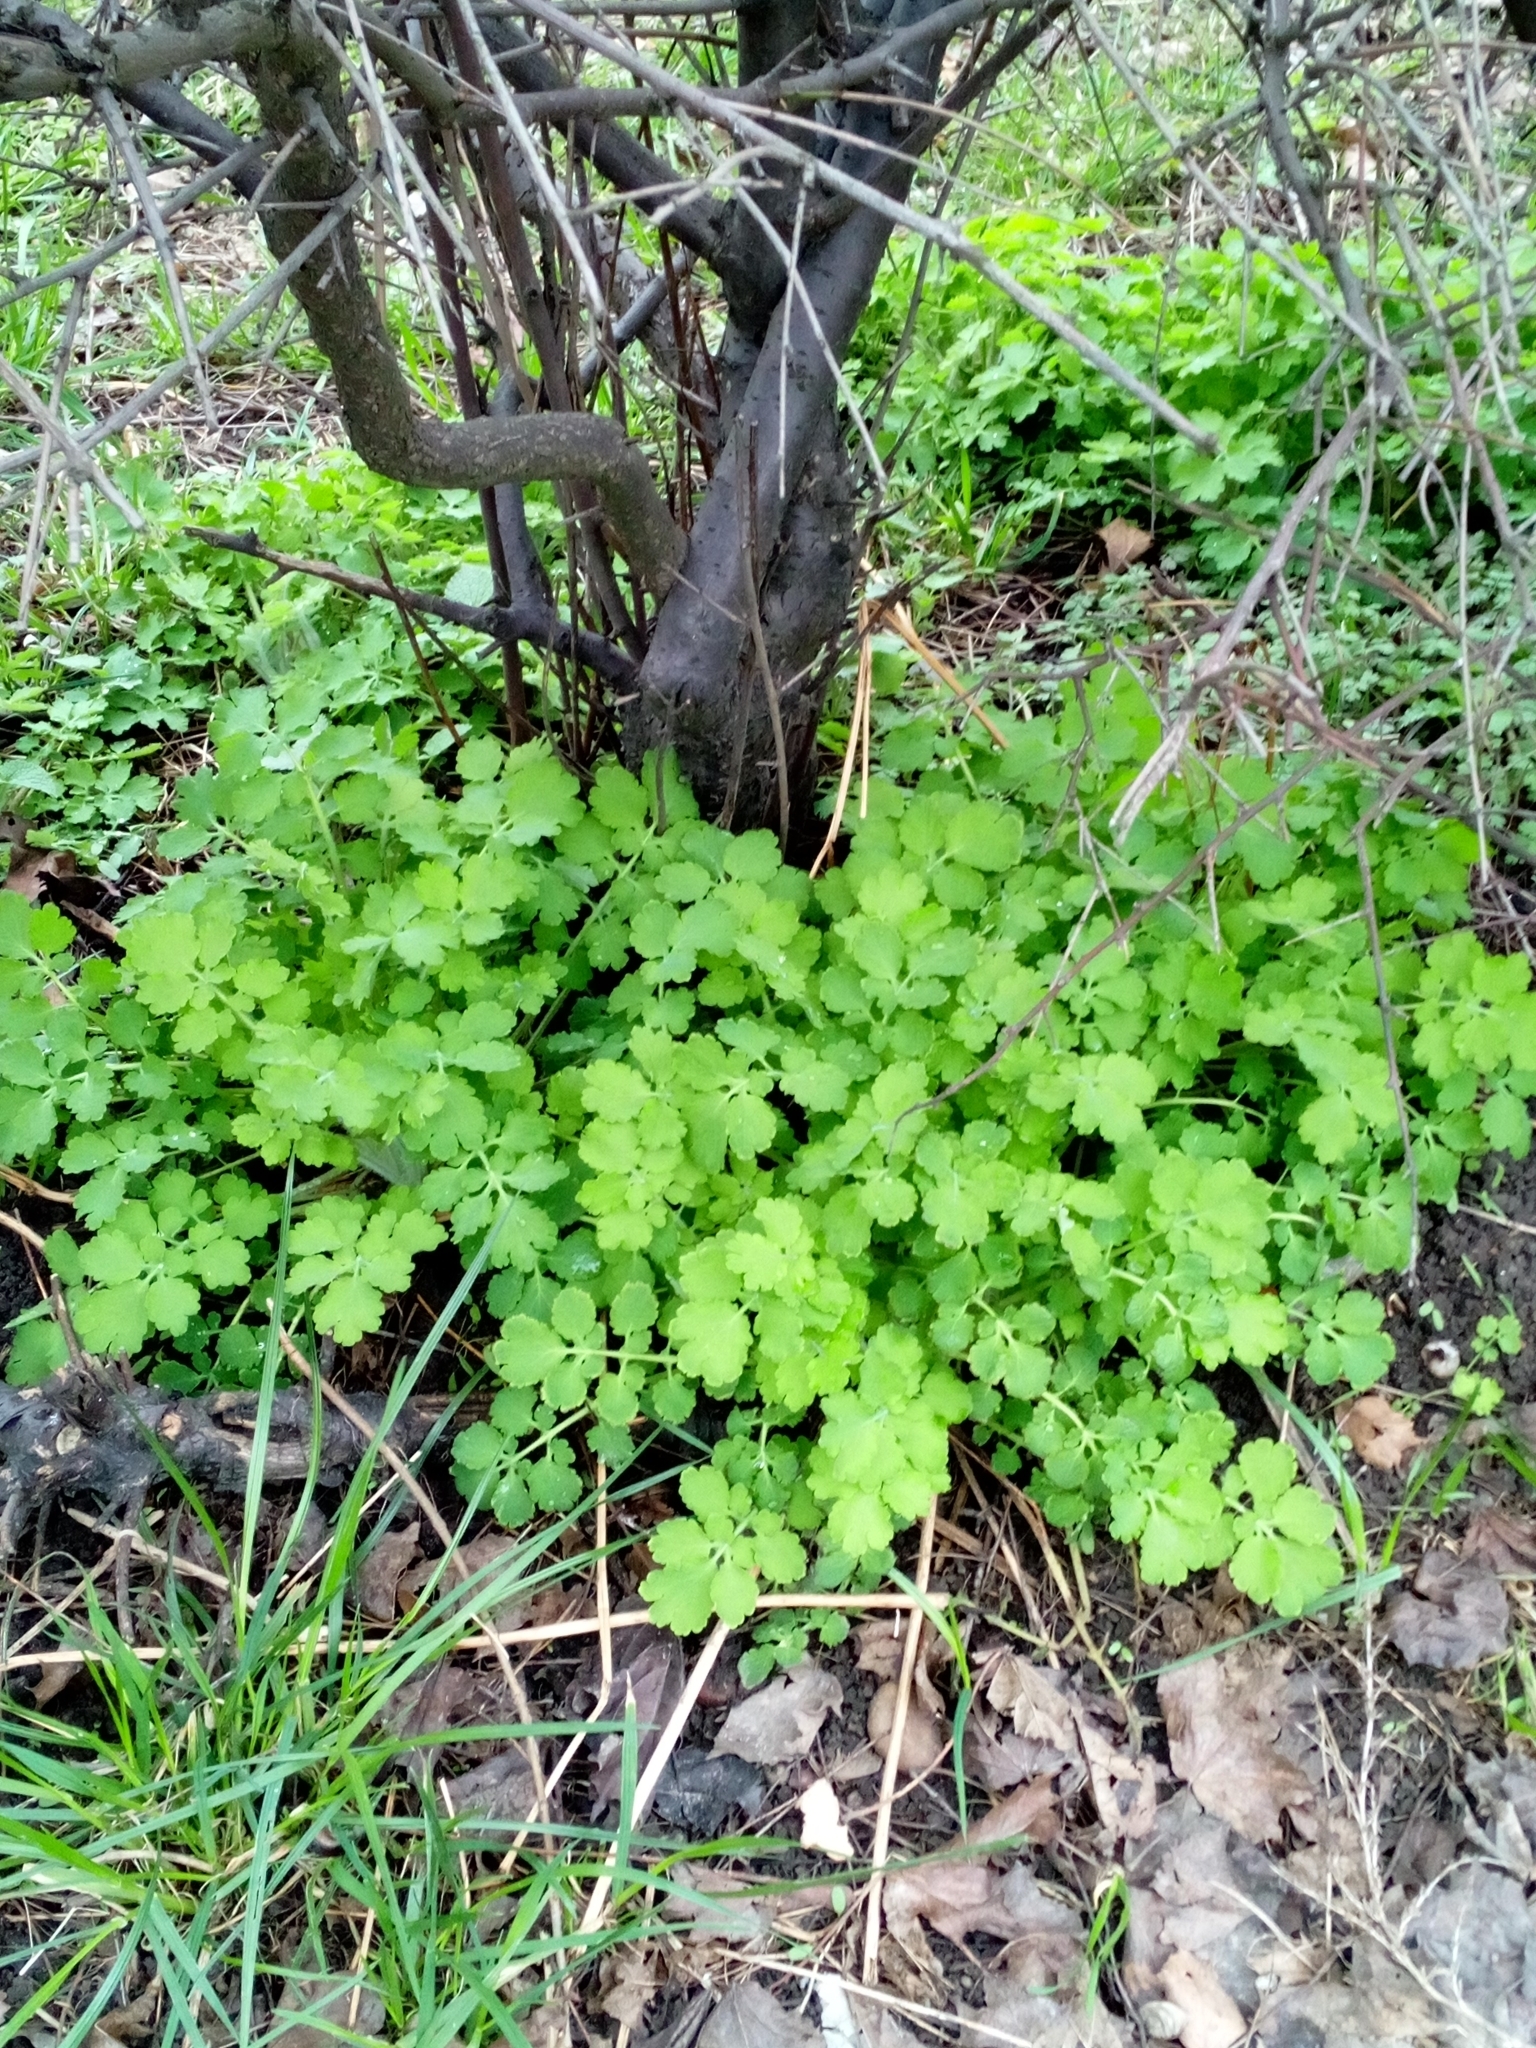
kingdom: Plantae
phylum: Tracheophyta
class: Magnoliopsida
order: Ranunculales
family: Papaveraceae
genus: Chelidonium
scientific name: Chelidonium majus
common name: Greater celandine
